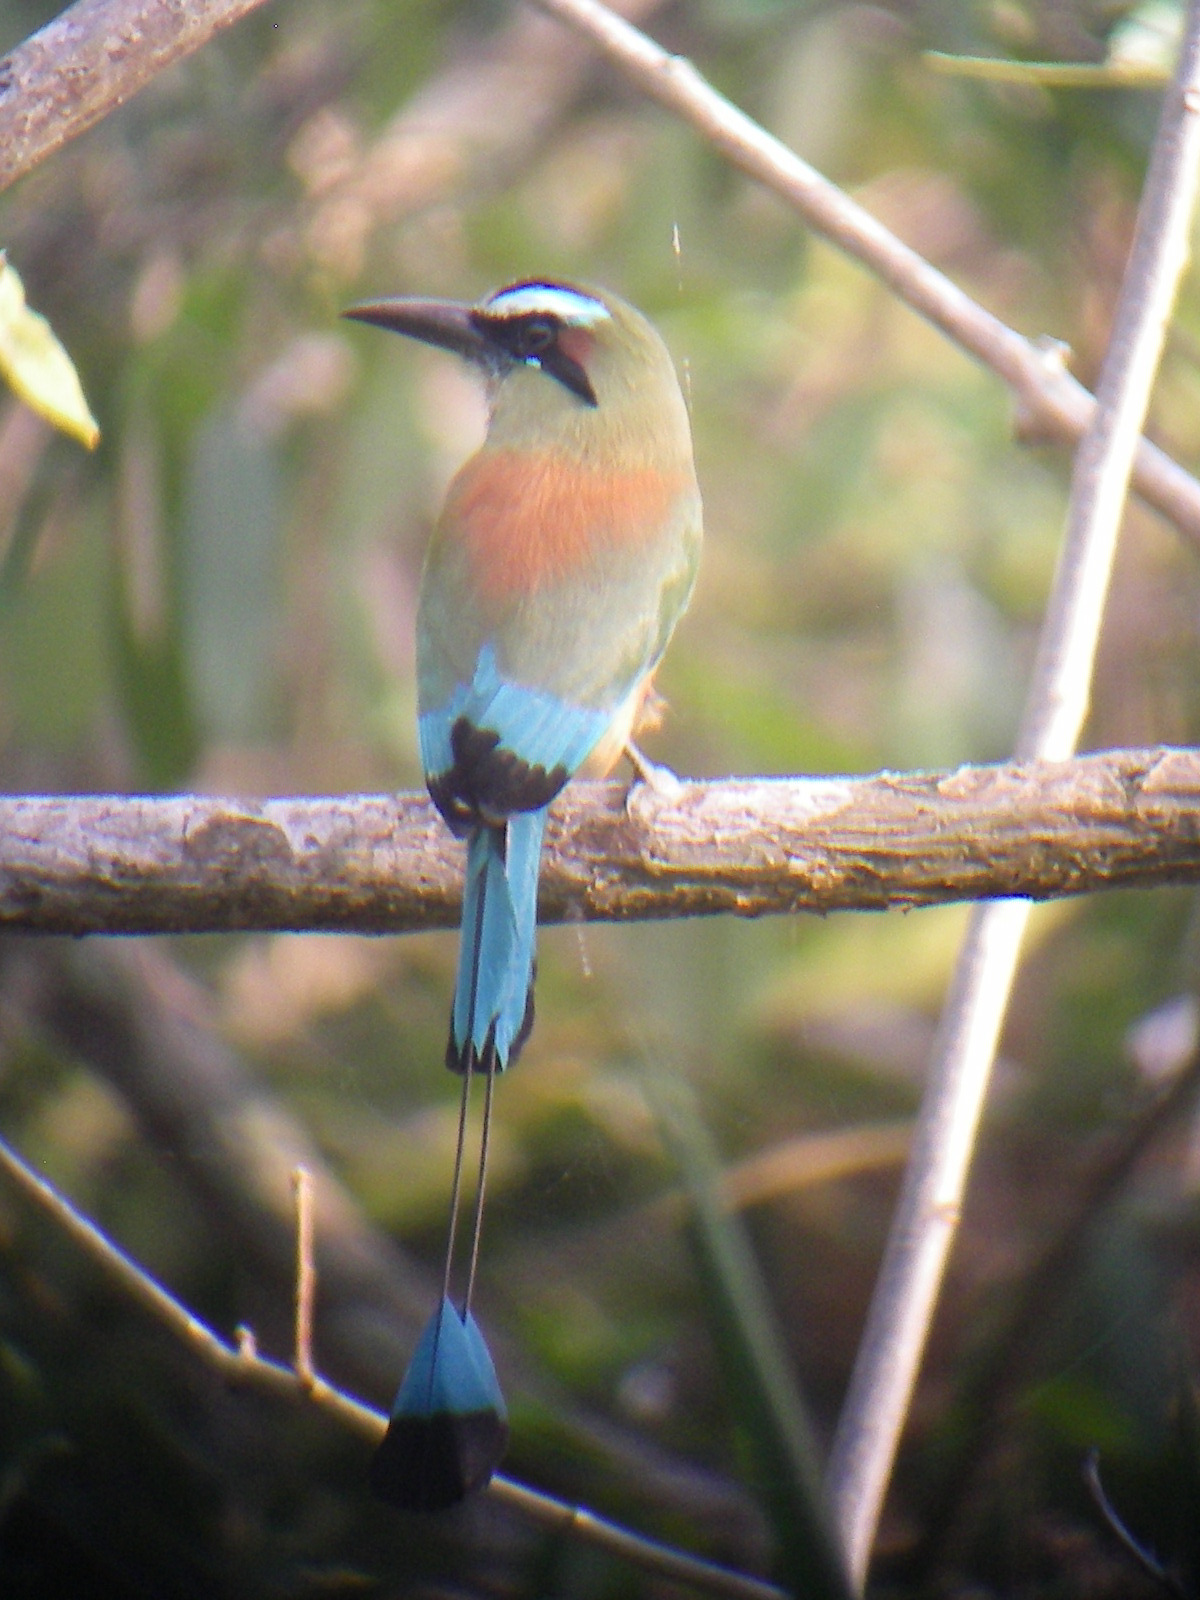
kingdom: Animalia
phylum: Chordata
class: Aves
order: Coraciiformes
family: Momotidae
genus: Eumomota
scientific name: Eumomota superciliosa
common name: Turquoise-browed motmot
